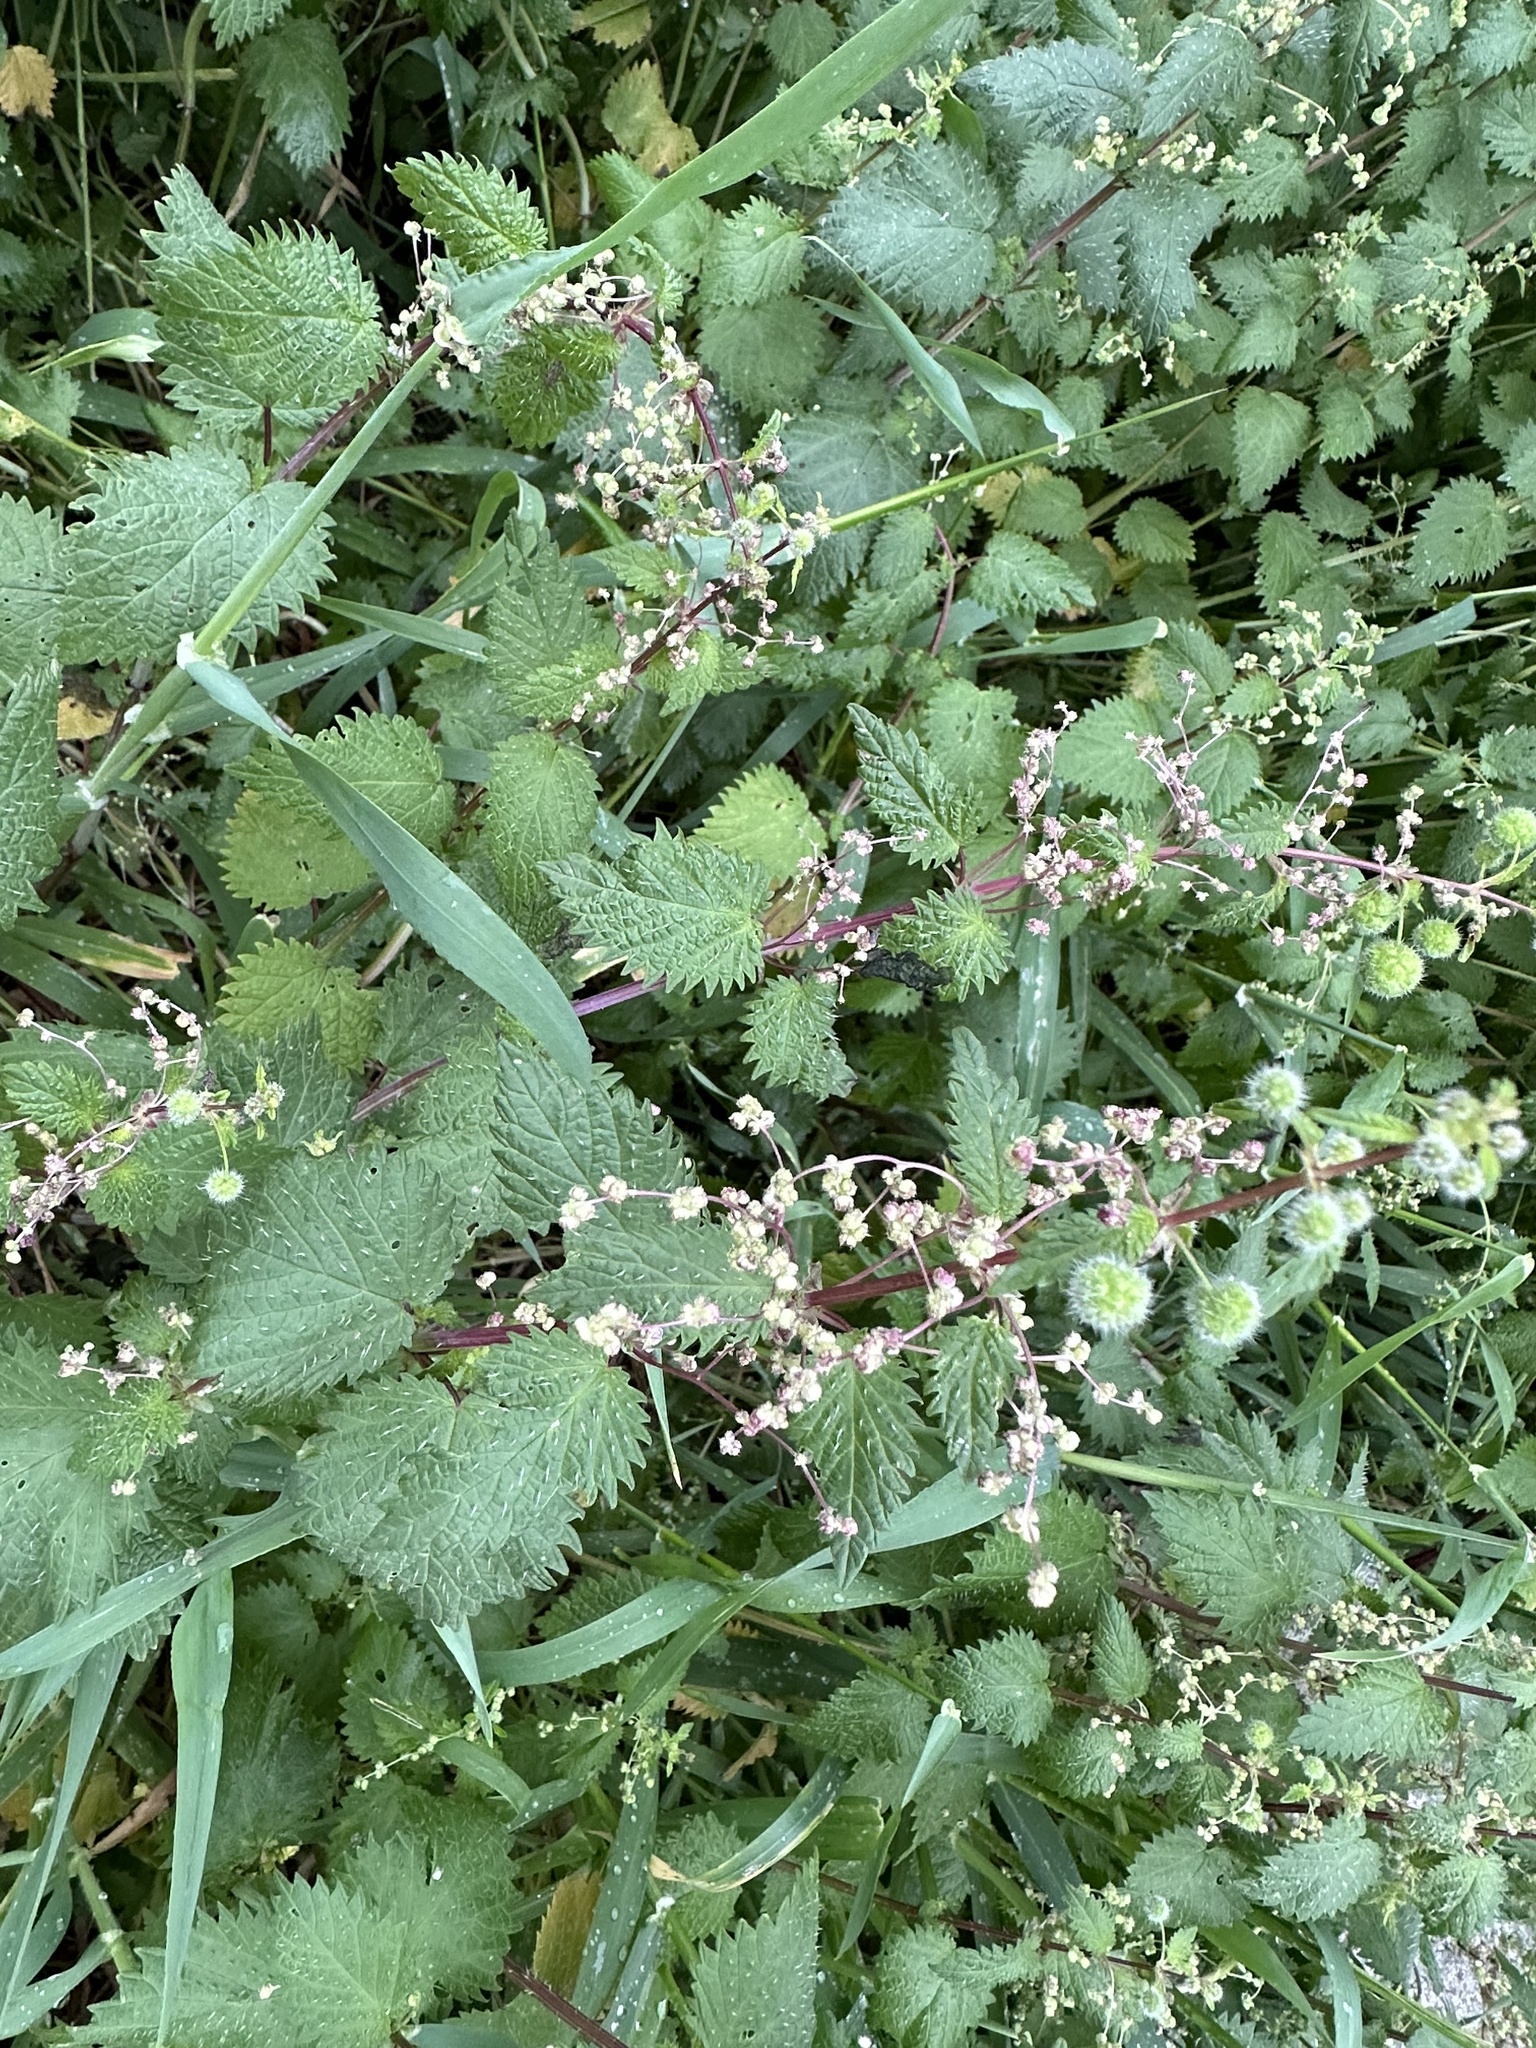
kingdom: Plantae
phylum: Tracheophyta
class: Magnoliopsida
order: Rosales
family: Urticaceae
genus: Urtica
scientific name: Urtica pilulifera
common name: Roman nettle
